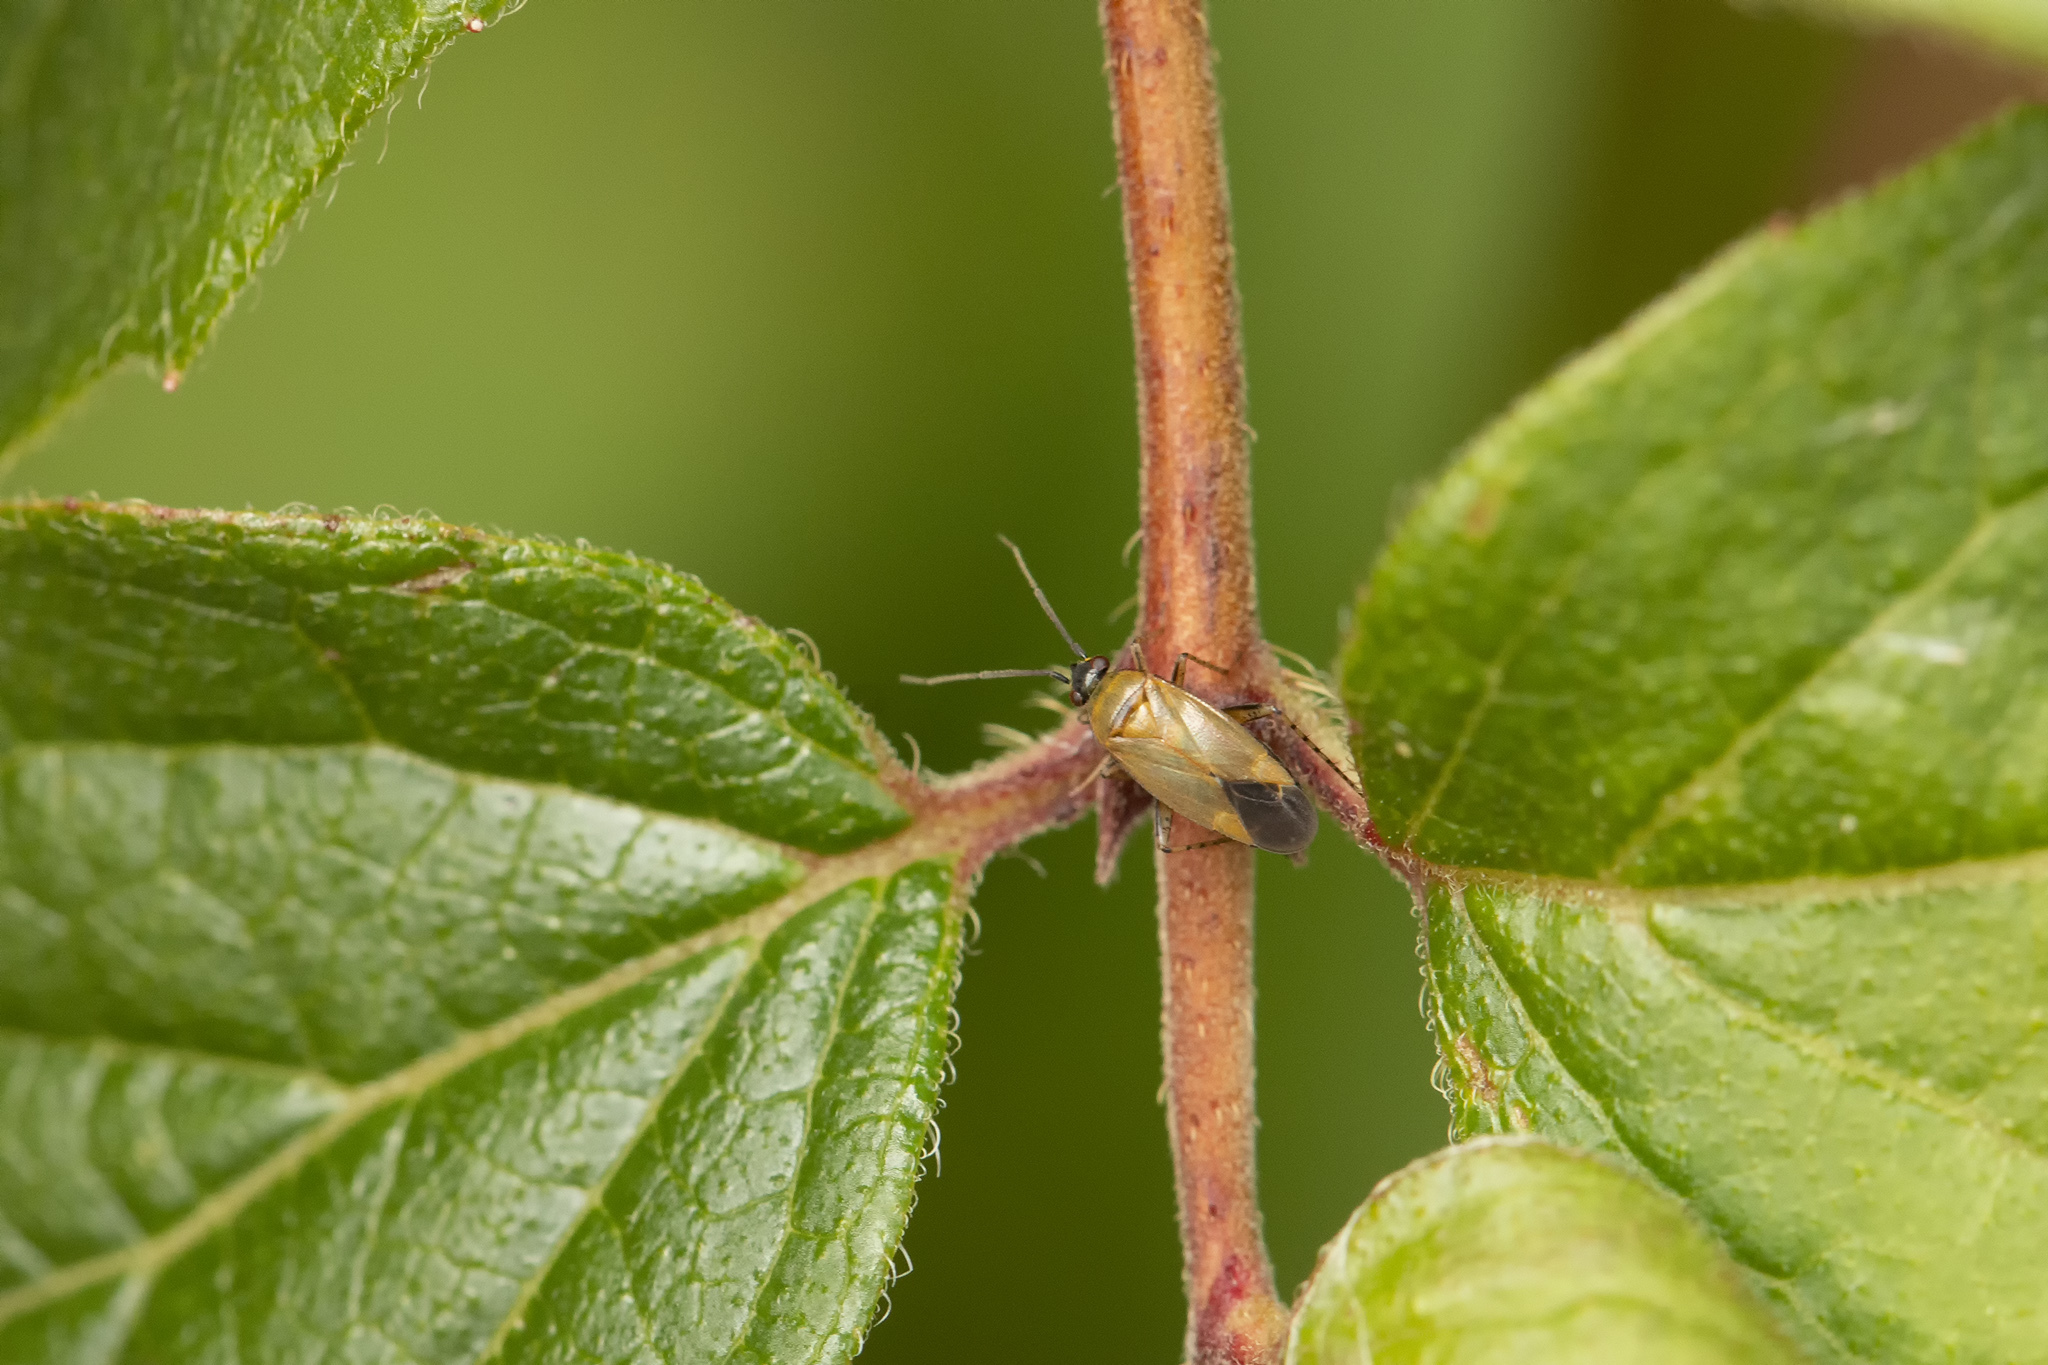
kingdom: Animalia
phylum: Arthropoda
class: Insecta
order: Hemiptera
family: Miridae
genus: Plagiognathus
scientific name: Plagiognathus arbustorum
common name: Plant bug
